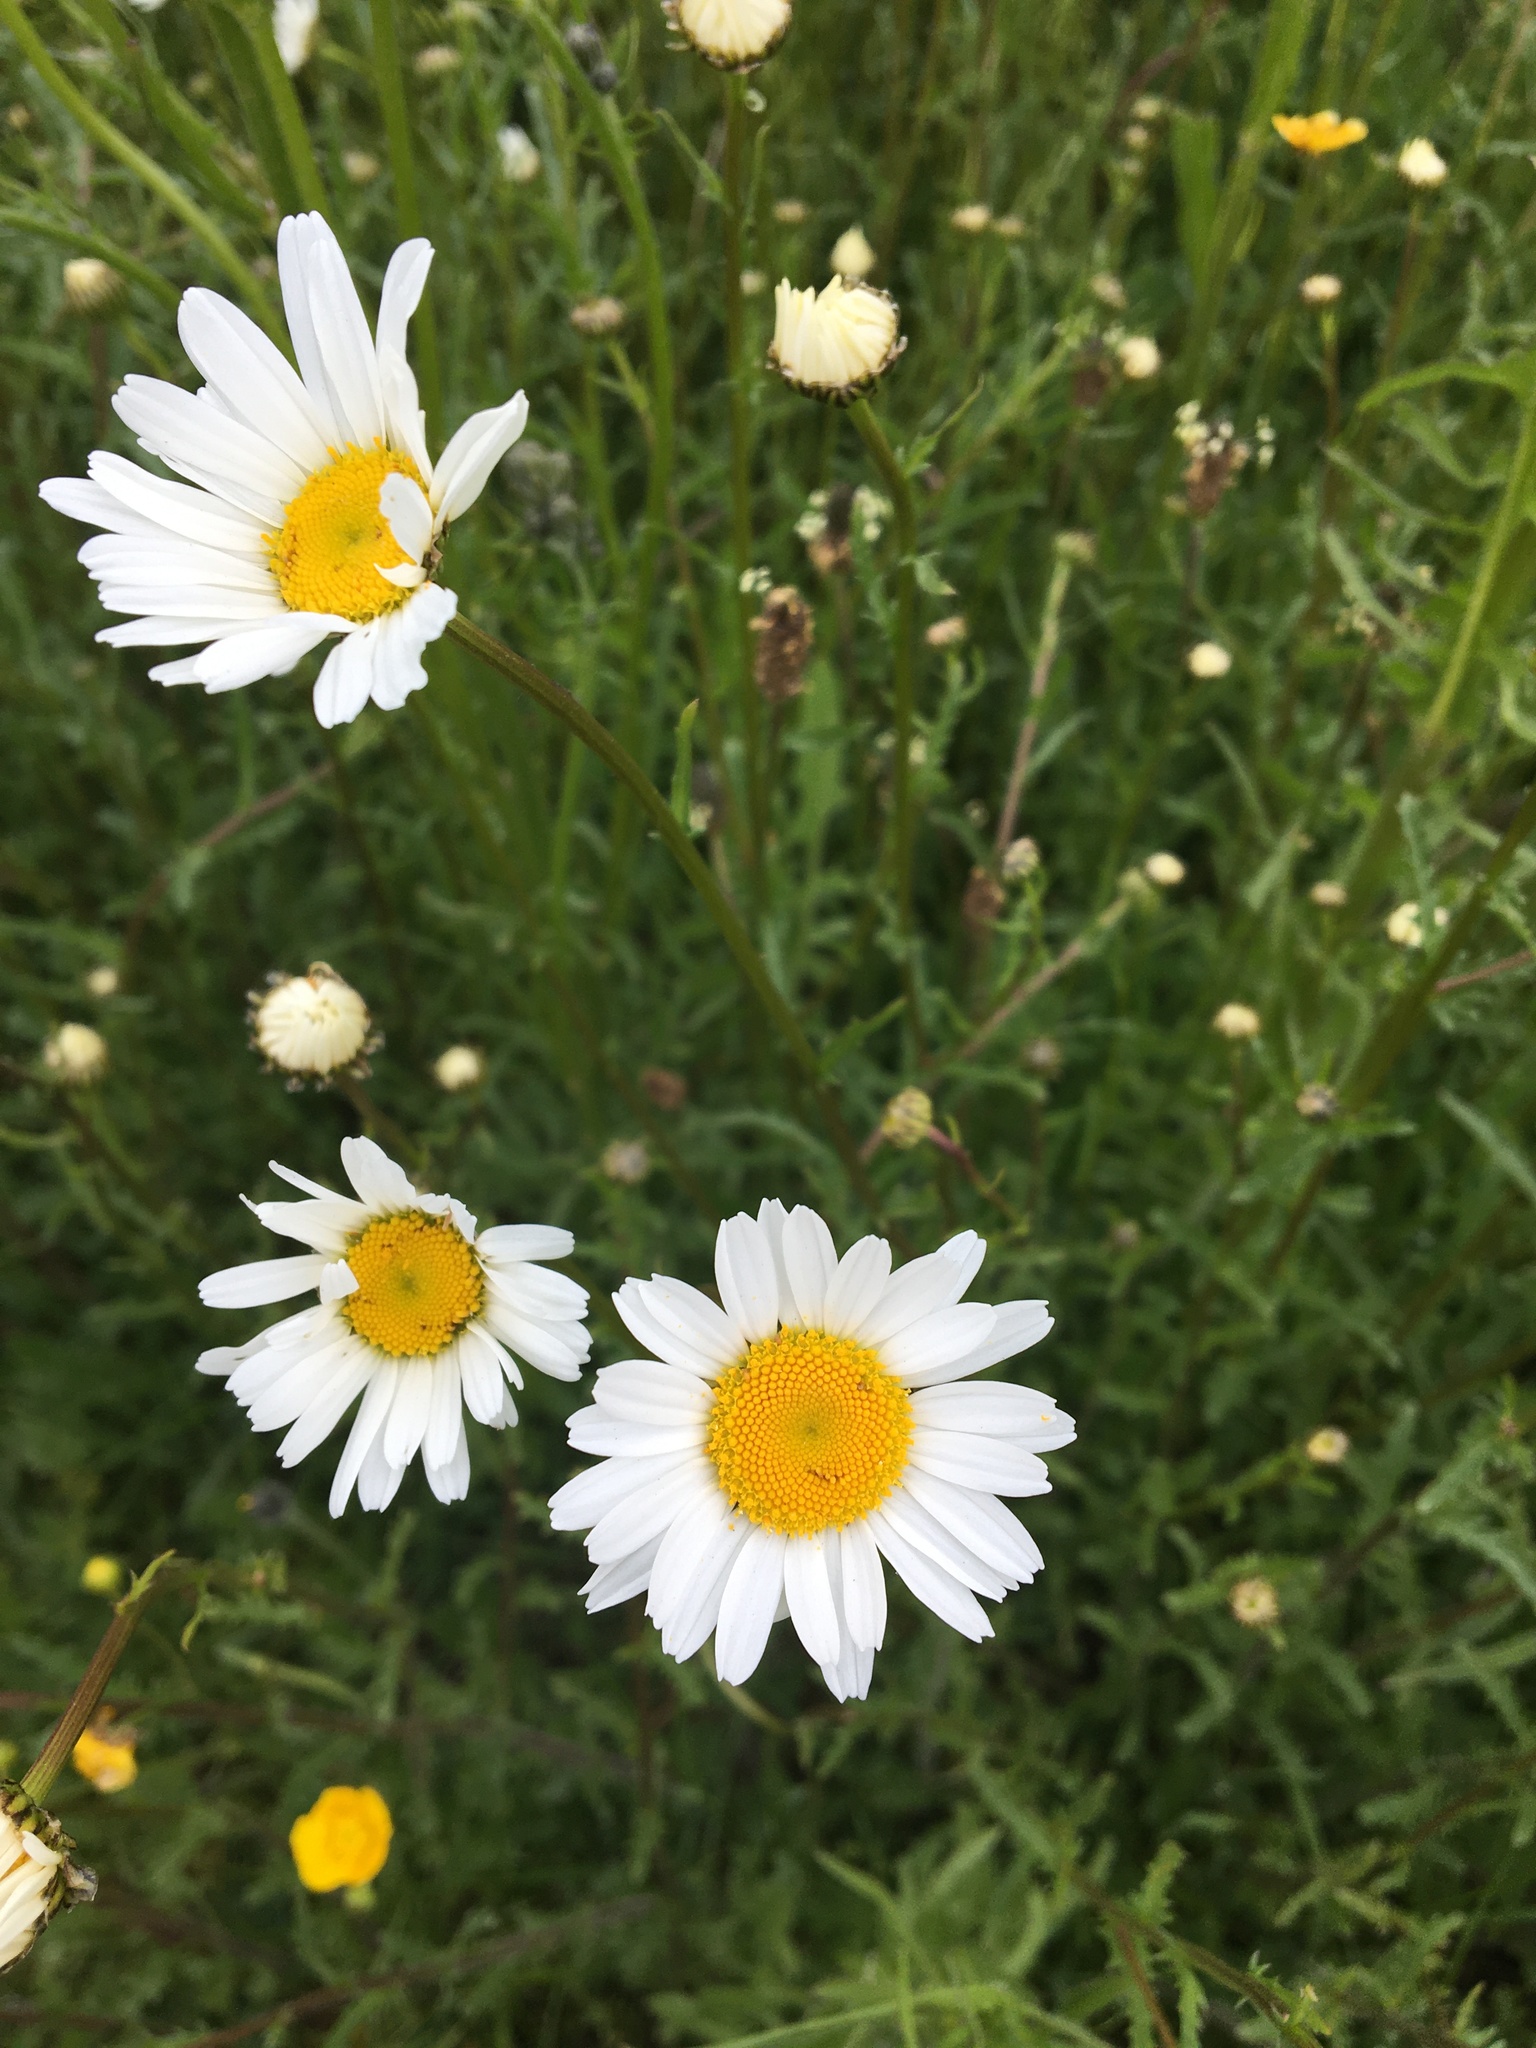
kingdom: Plantae
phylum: Tracheophyta
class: Magnoliopsida
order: Asterales
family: Asteraceae
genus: Leucanthemum
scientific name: Leucanthemum vulgare
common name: Oxeye daisy
